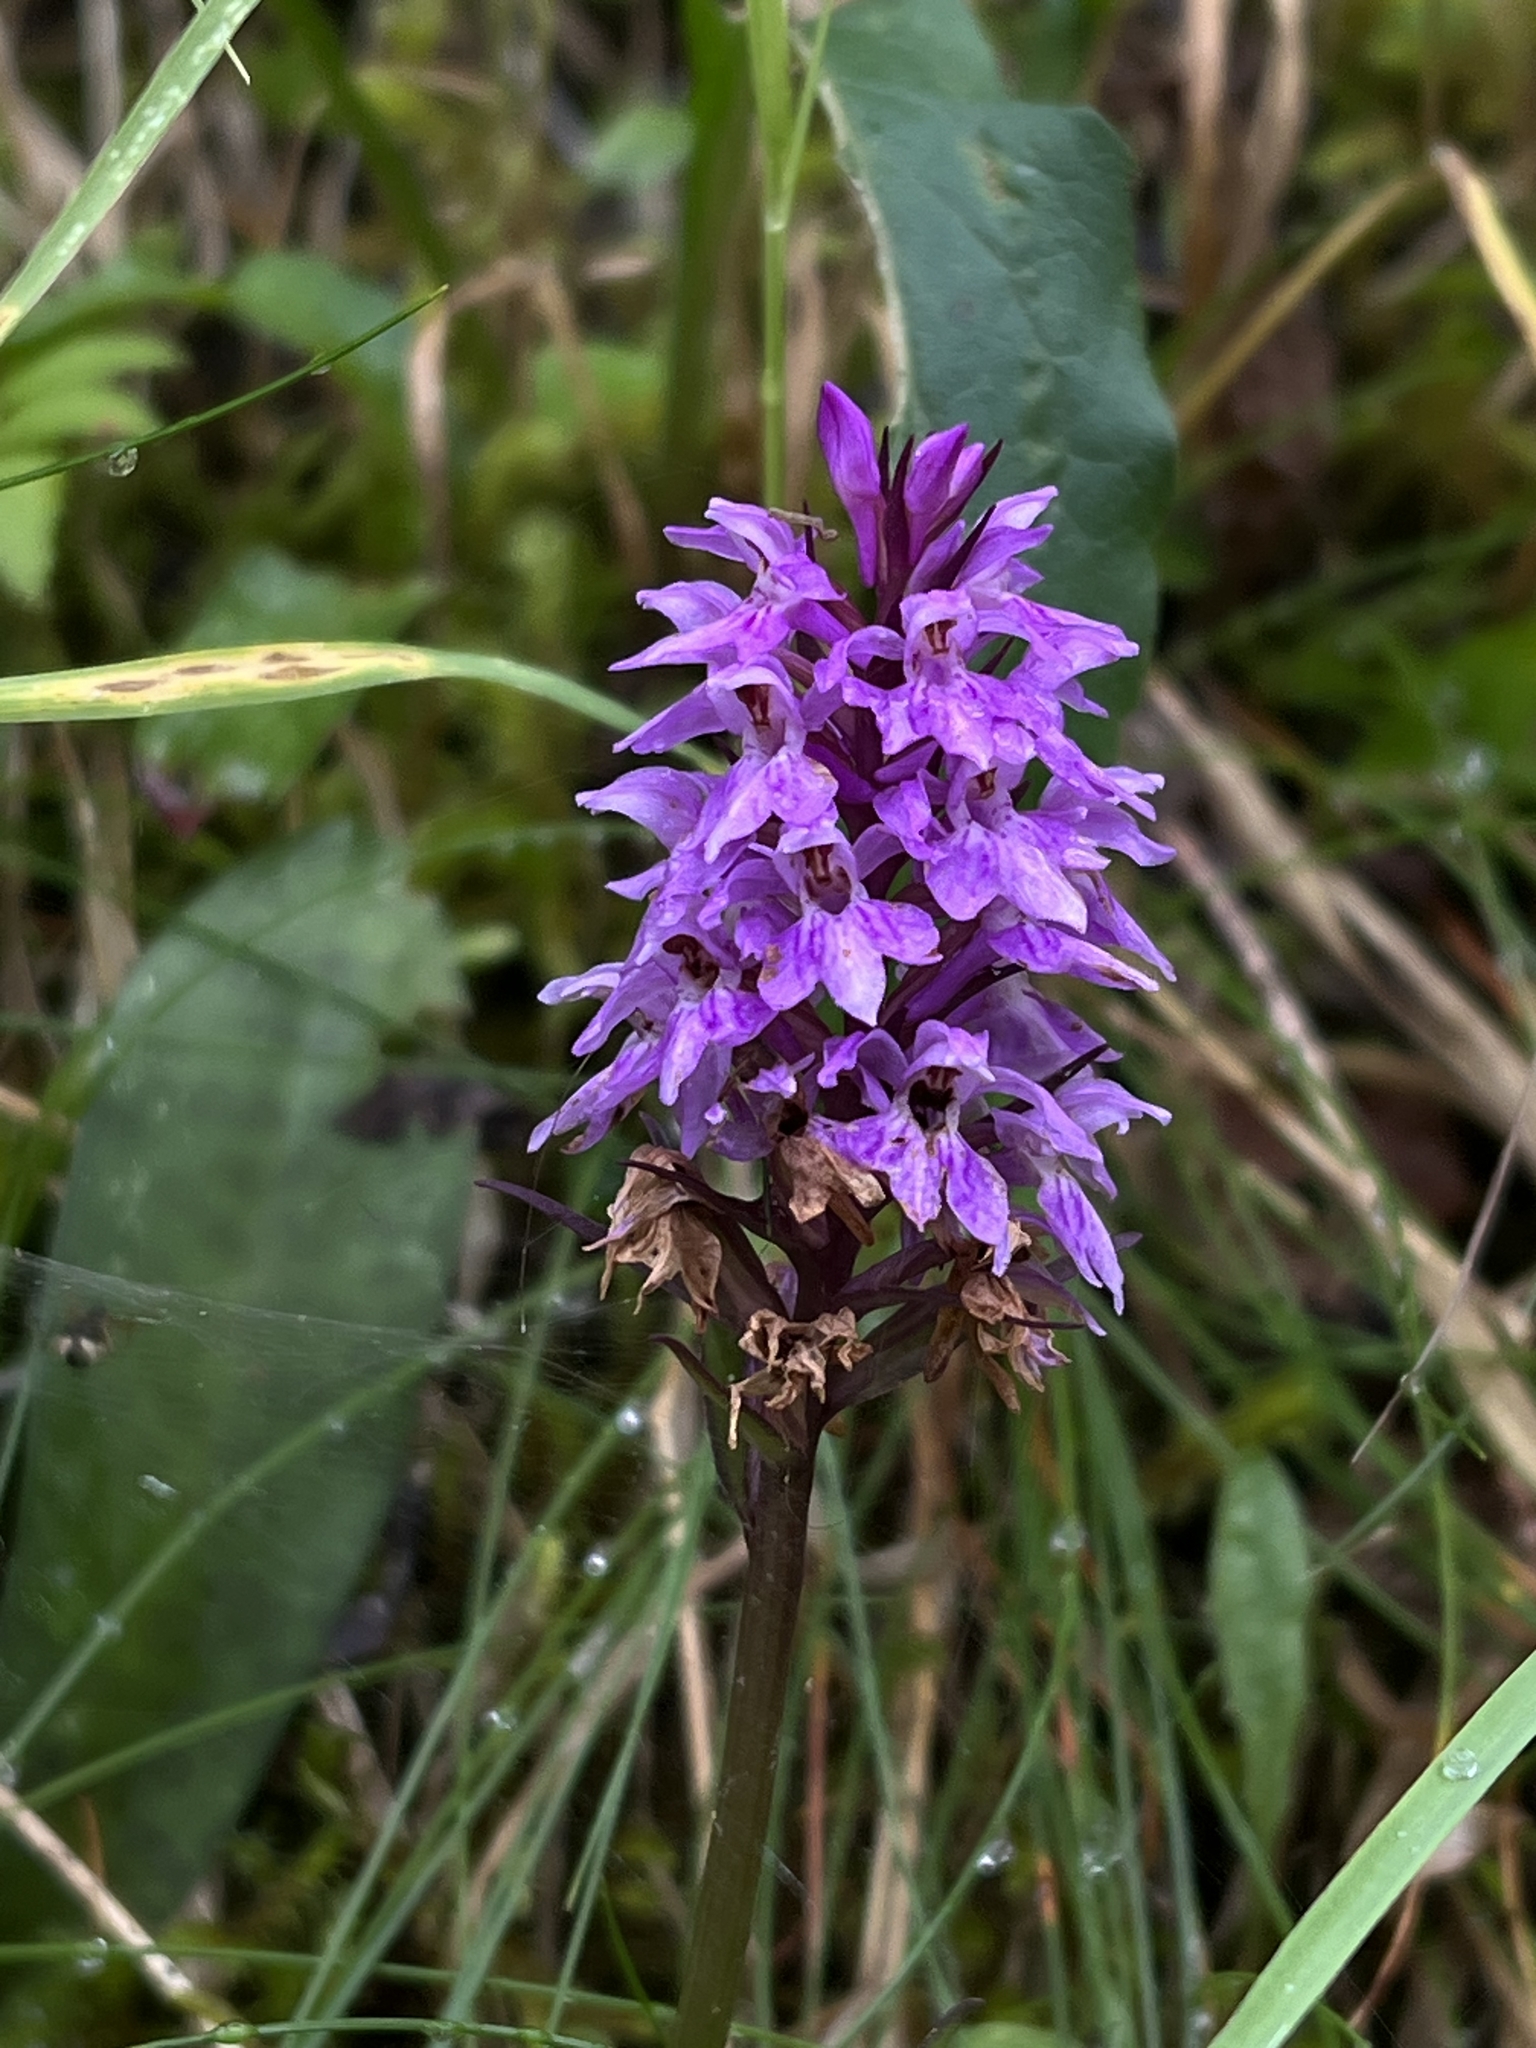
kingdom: Plantae
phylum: Tracheophyta
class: Liliopsida
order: Asparagales
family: Orchidaceae
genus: Dactylorhiza
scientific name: Dactylorhiza maculata
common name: Heath spotted-orchid
